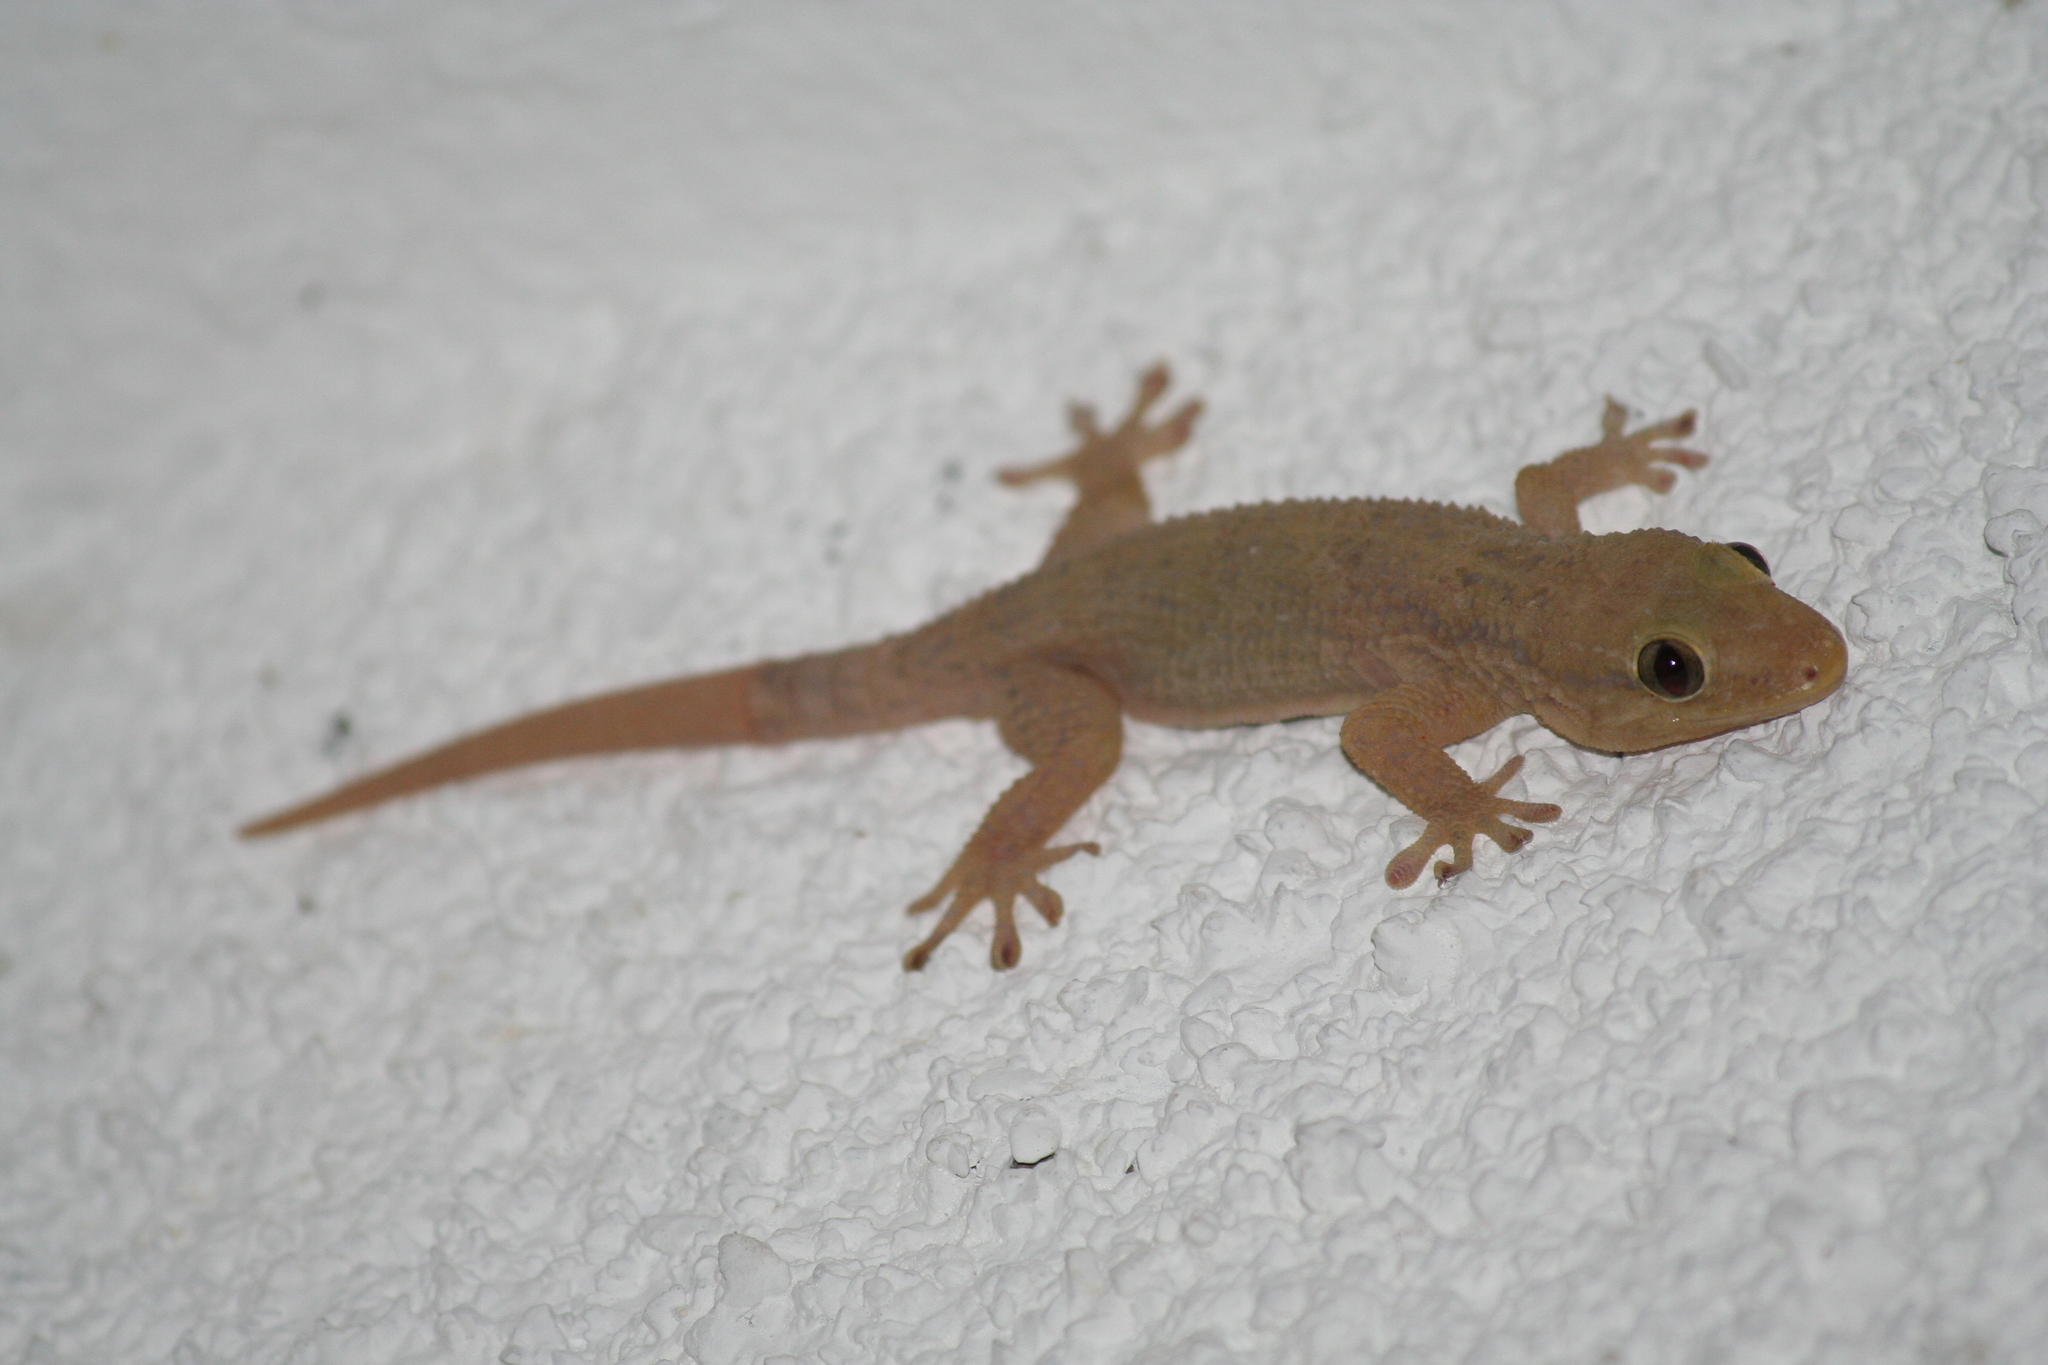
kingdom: Animalia
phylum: Chordata
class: Squamata
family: Phyllodactylidae
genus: Tarentola
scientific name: Tarentola americana
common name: American wall gecko
